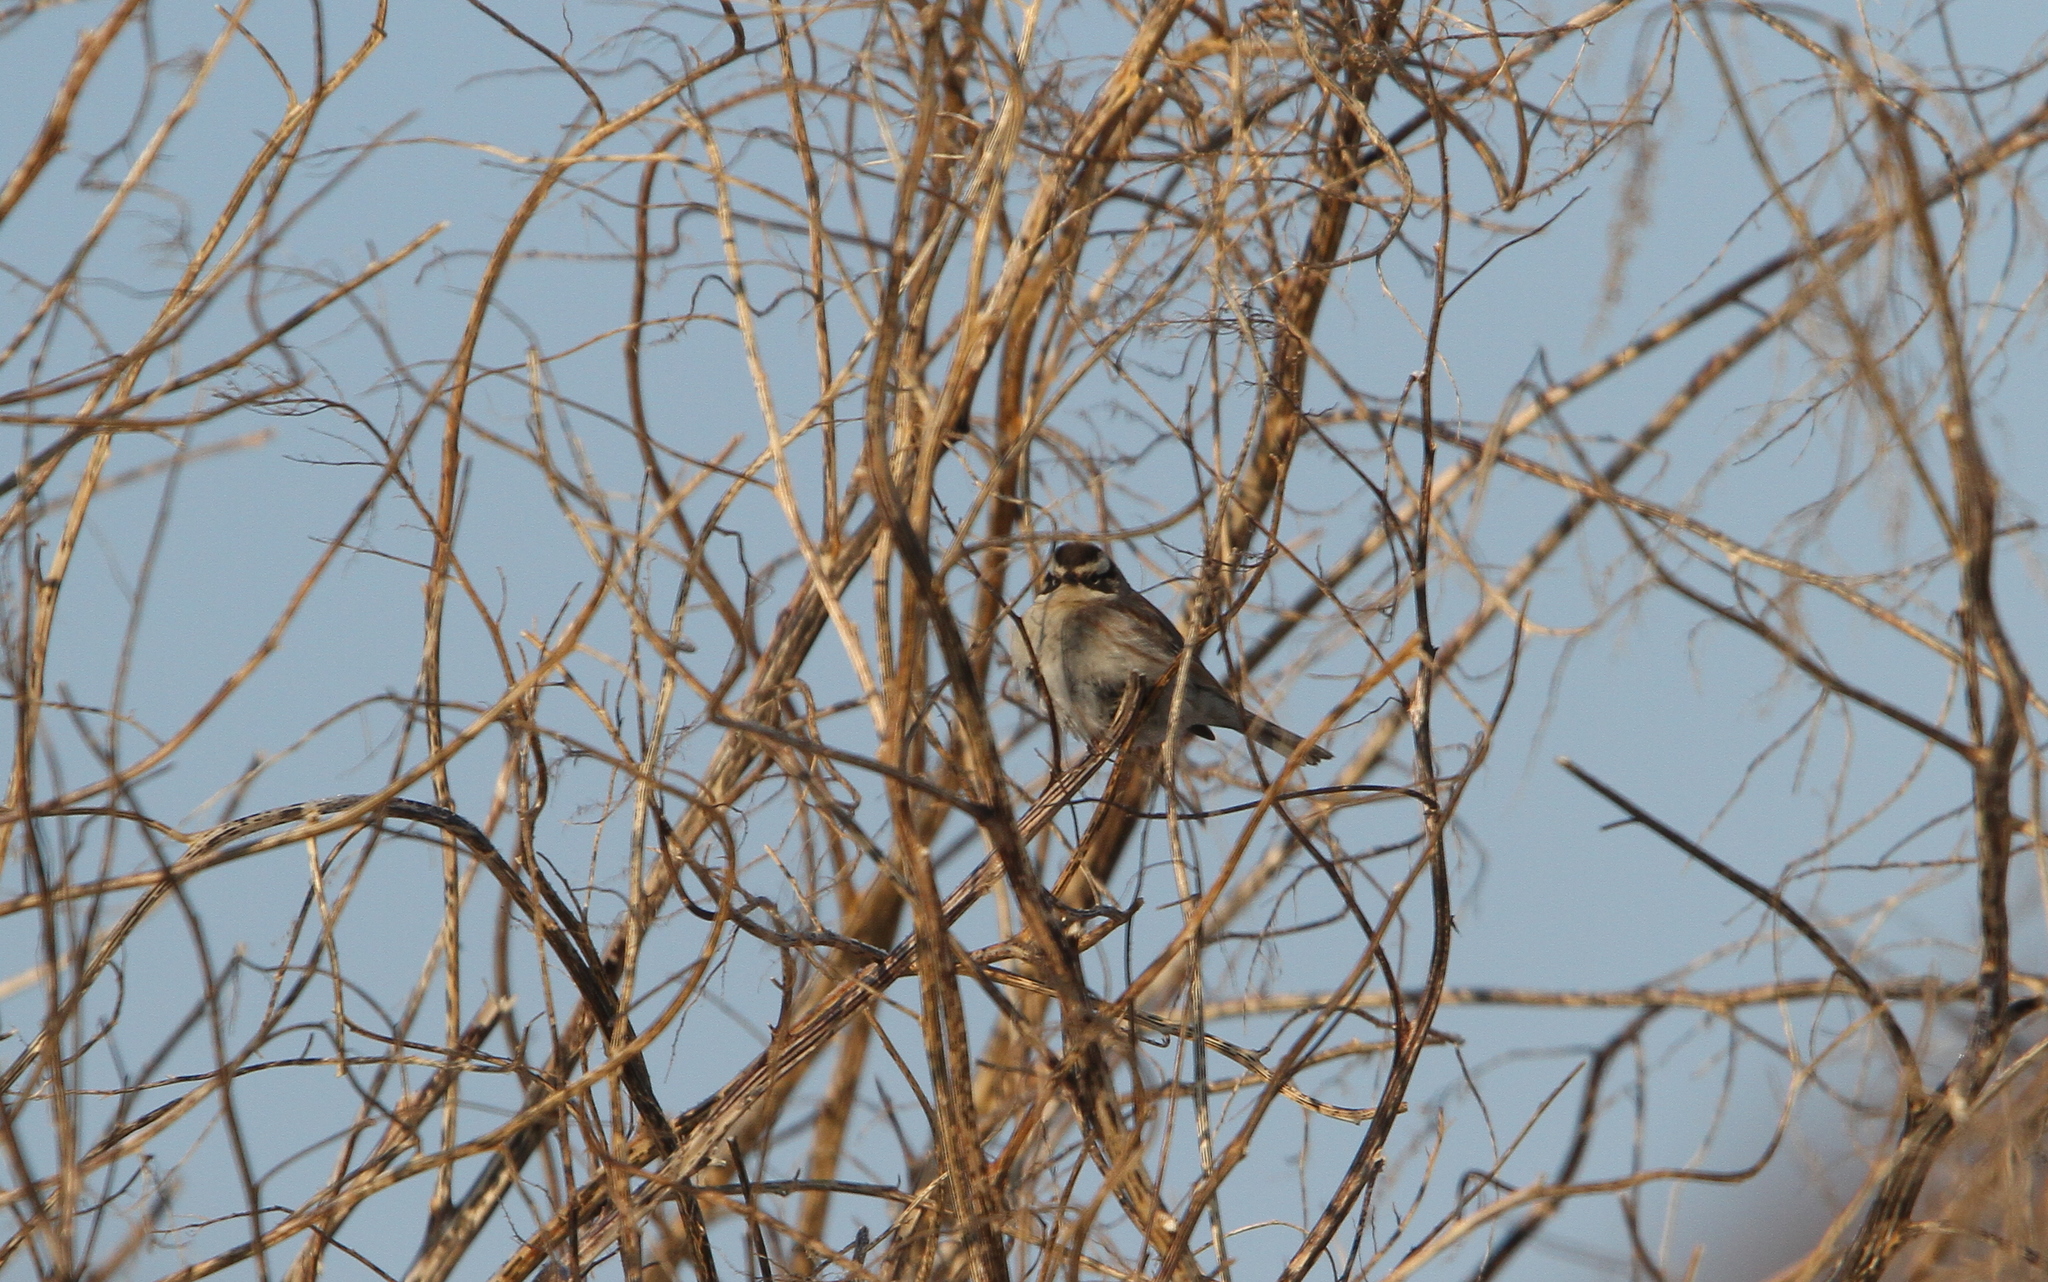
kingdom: Animalia
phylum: Chordata
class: Aves
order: Passeriformes
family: Prunellidae
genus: Prunella
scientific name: Prunella montanella
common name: Siberian accentor
